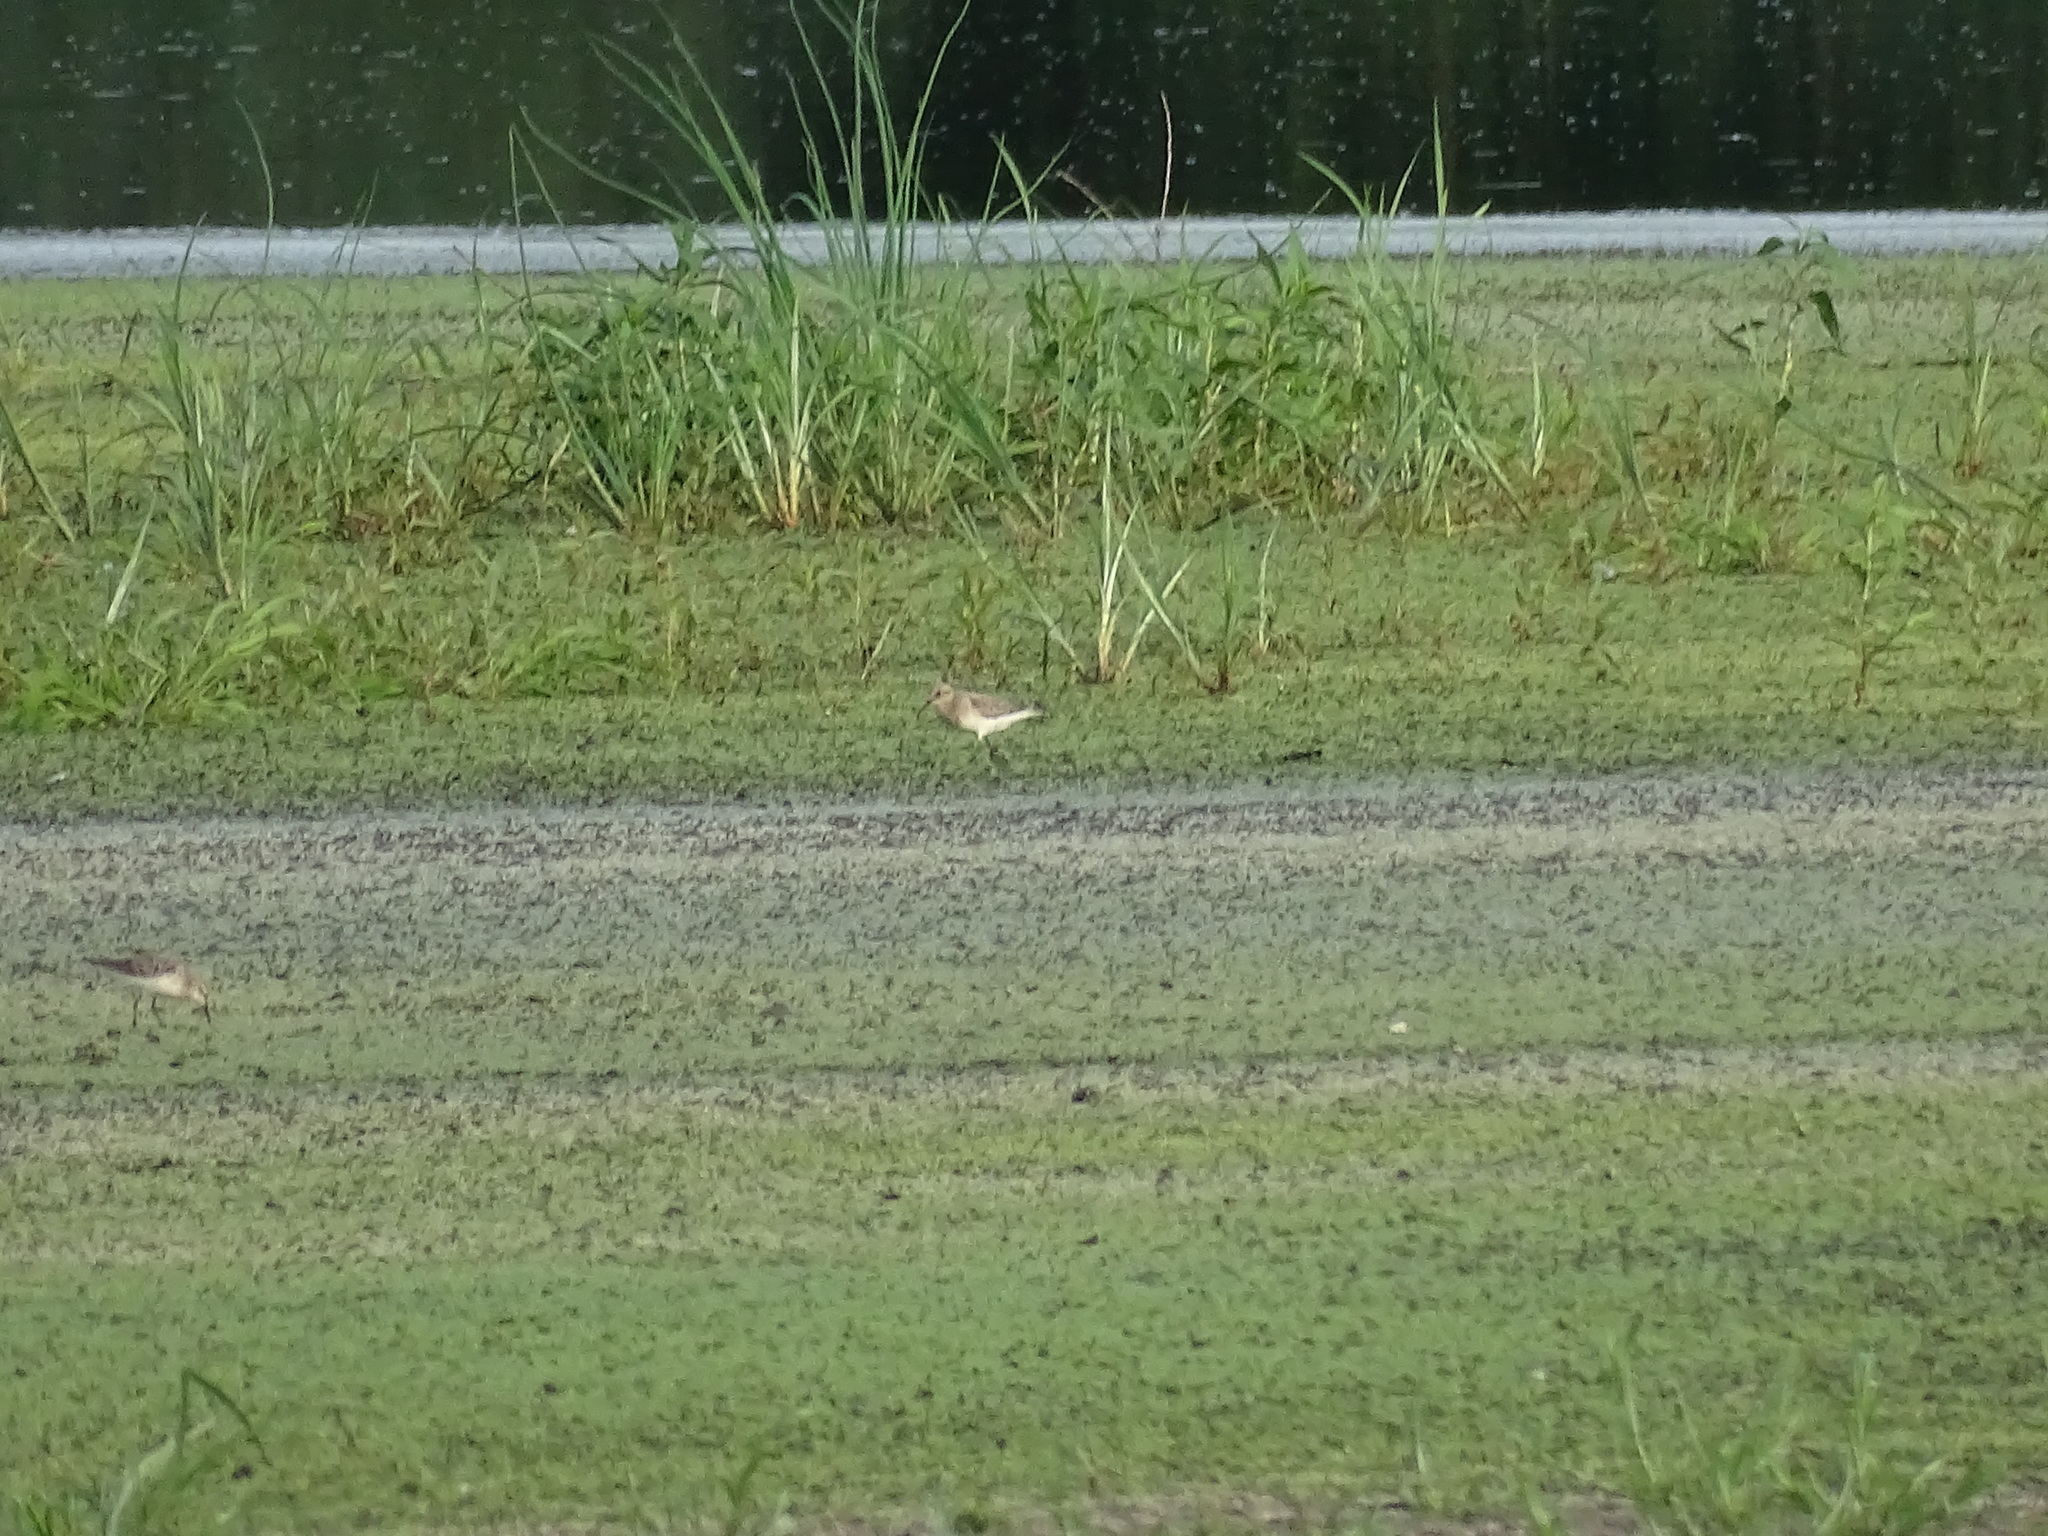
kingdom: Animalia
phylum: Chordata
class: Aves
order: Charadriiformes
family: Scolopacidae
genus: Calidris
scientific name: Calidris bairdii
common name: Baird's sandpiper
